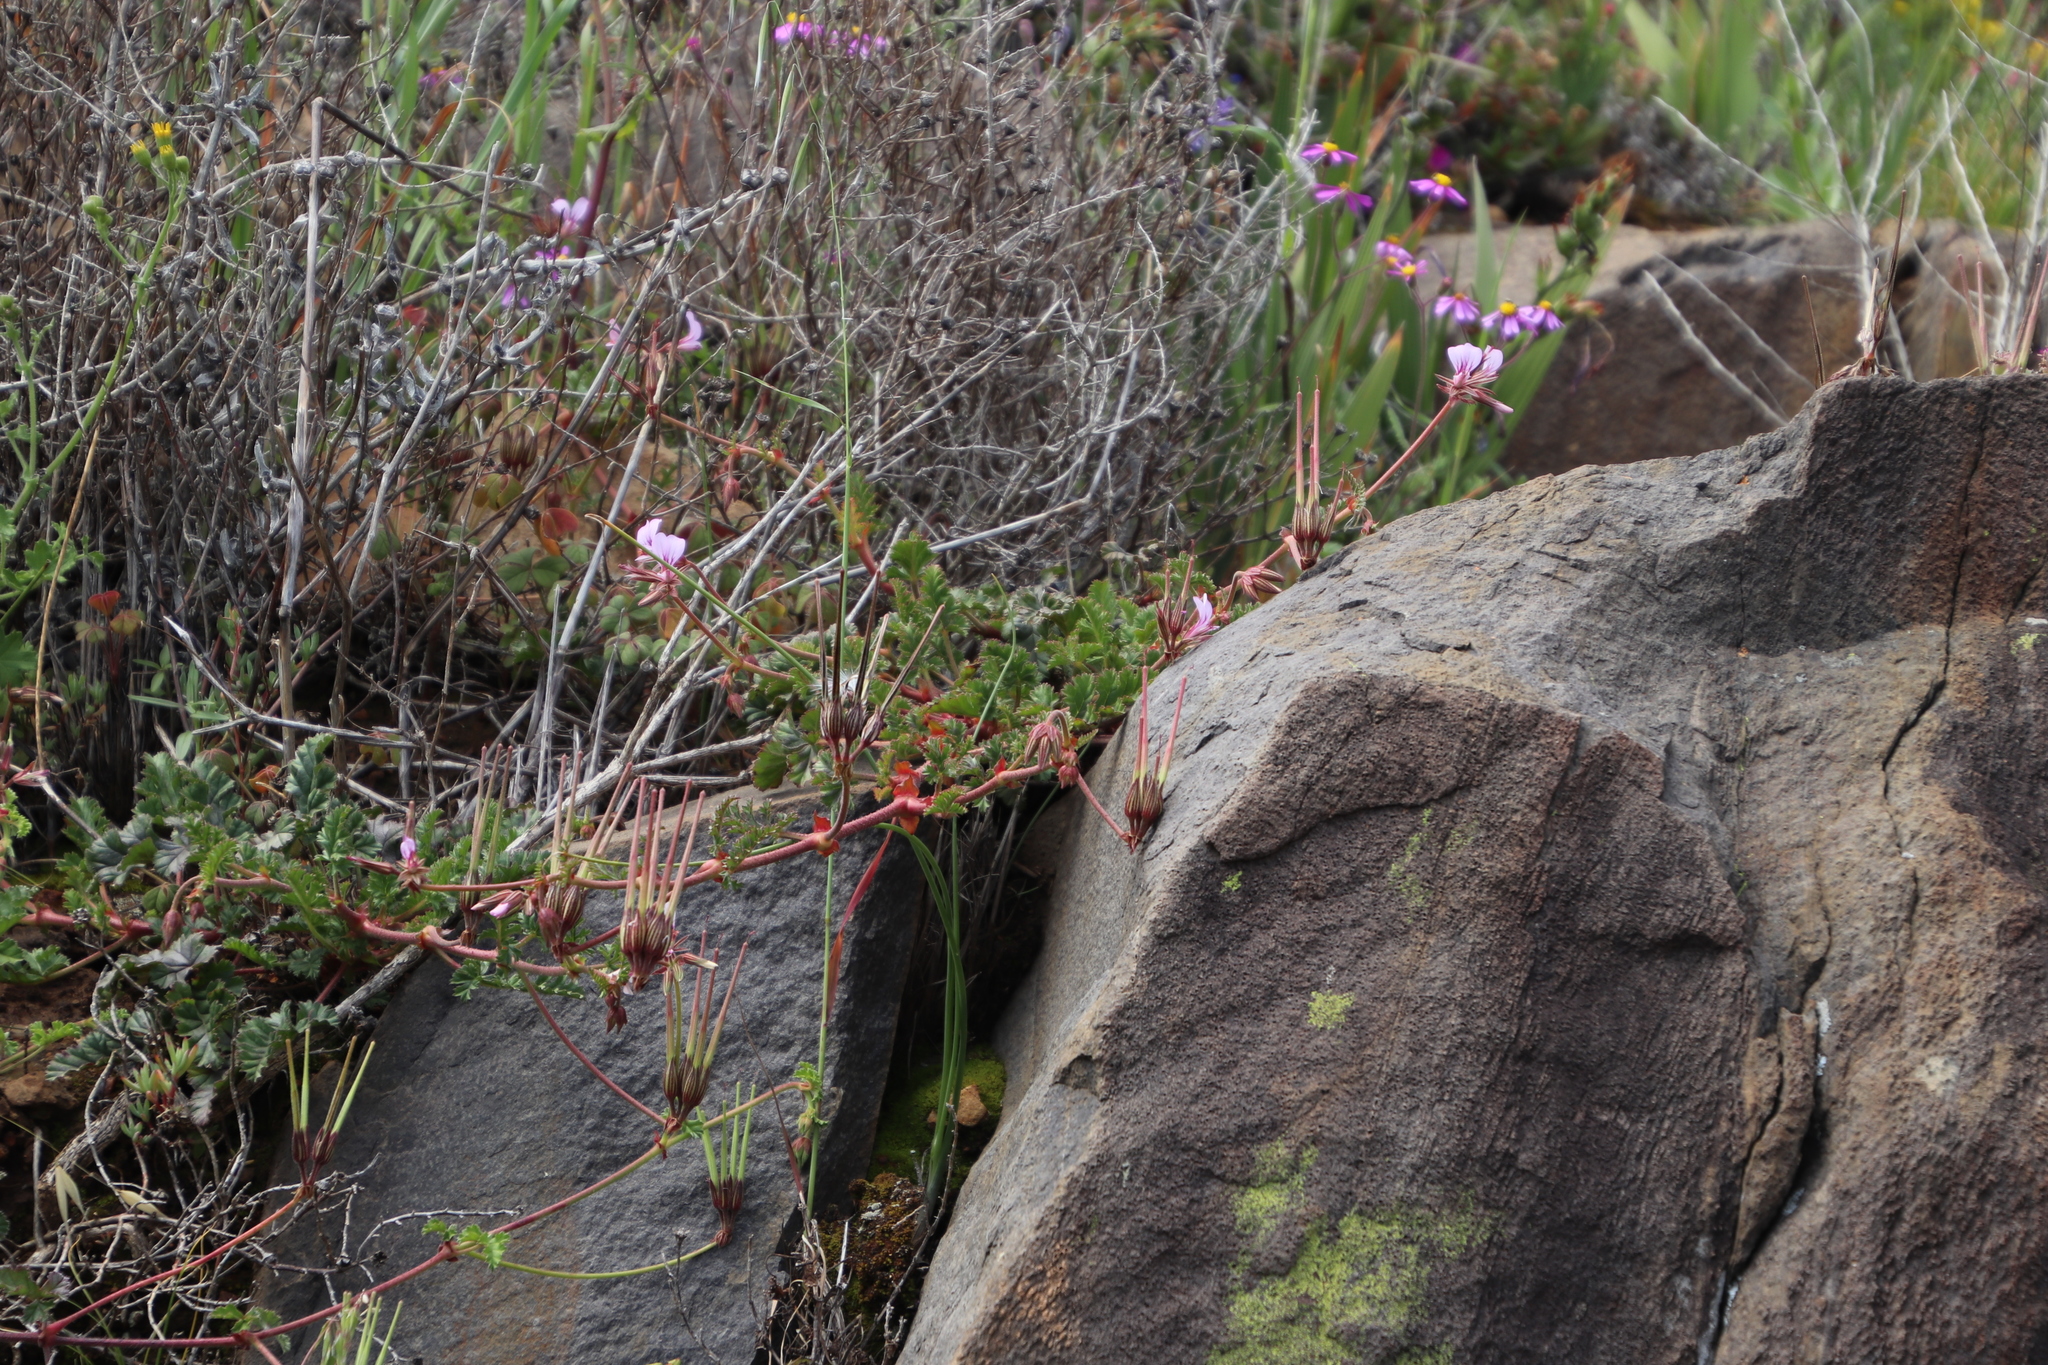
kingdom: Plantae
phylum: Tracheophyta
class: Magnoliopsida
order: Geraniales
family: Geraniaceae
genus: Pelargonium
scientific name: Pelargonium myrrhifolium
